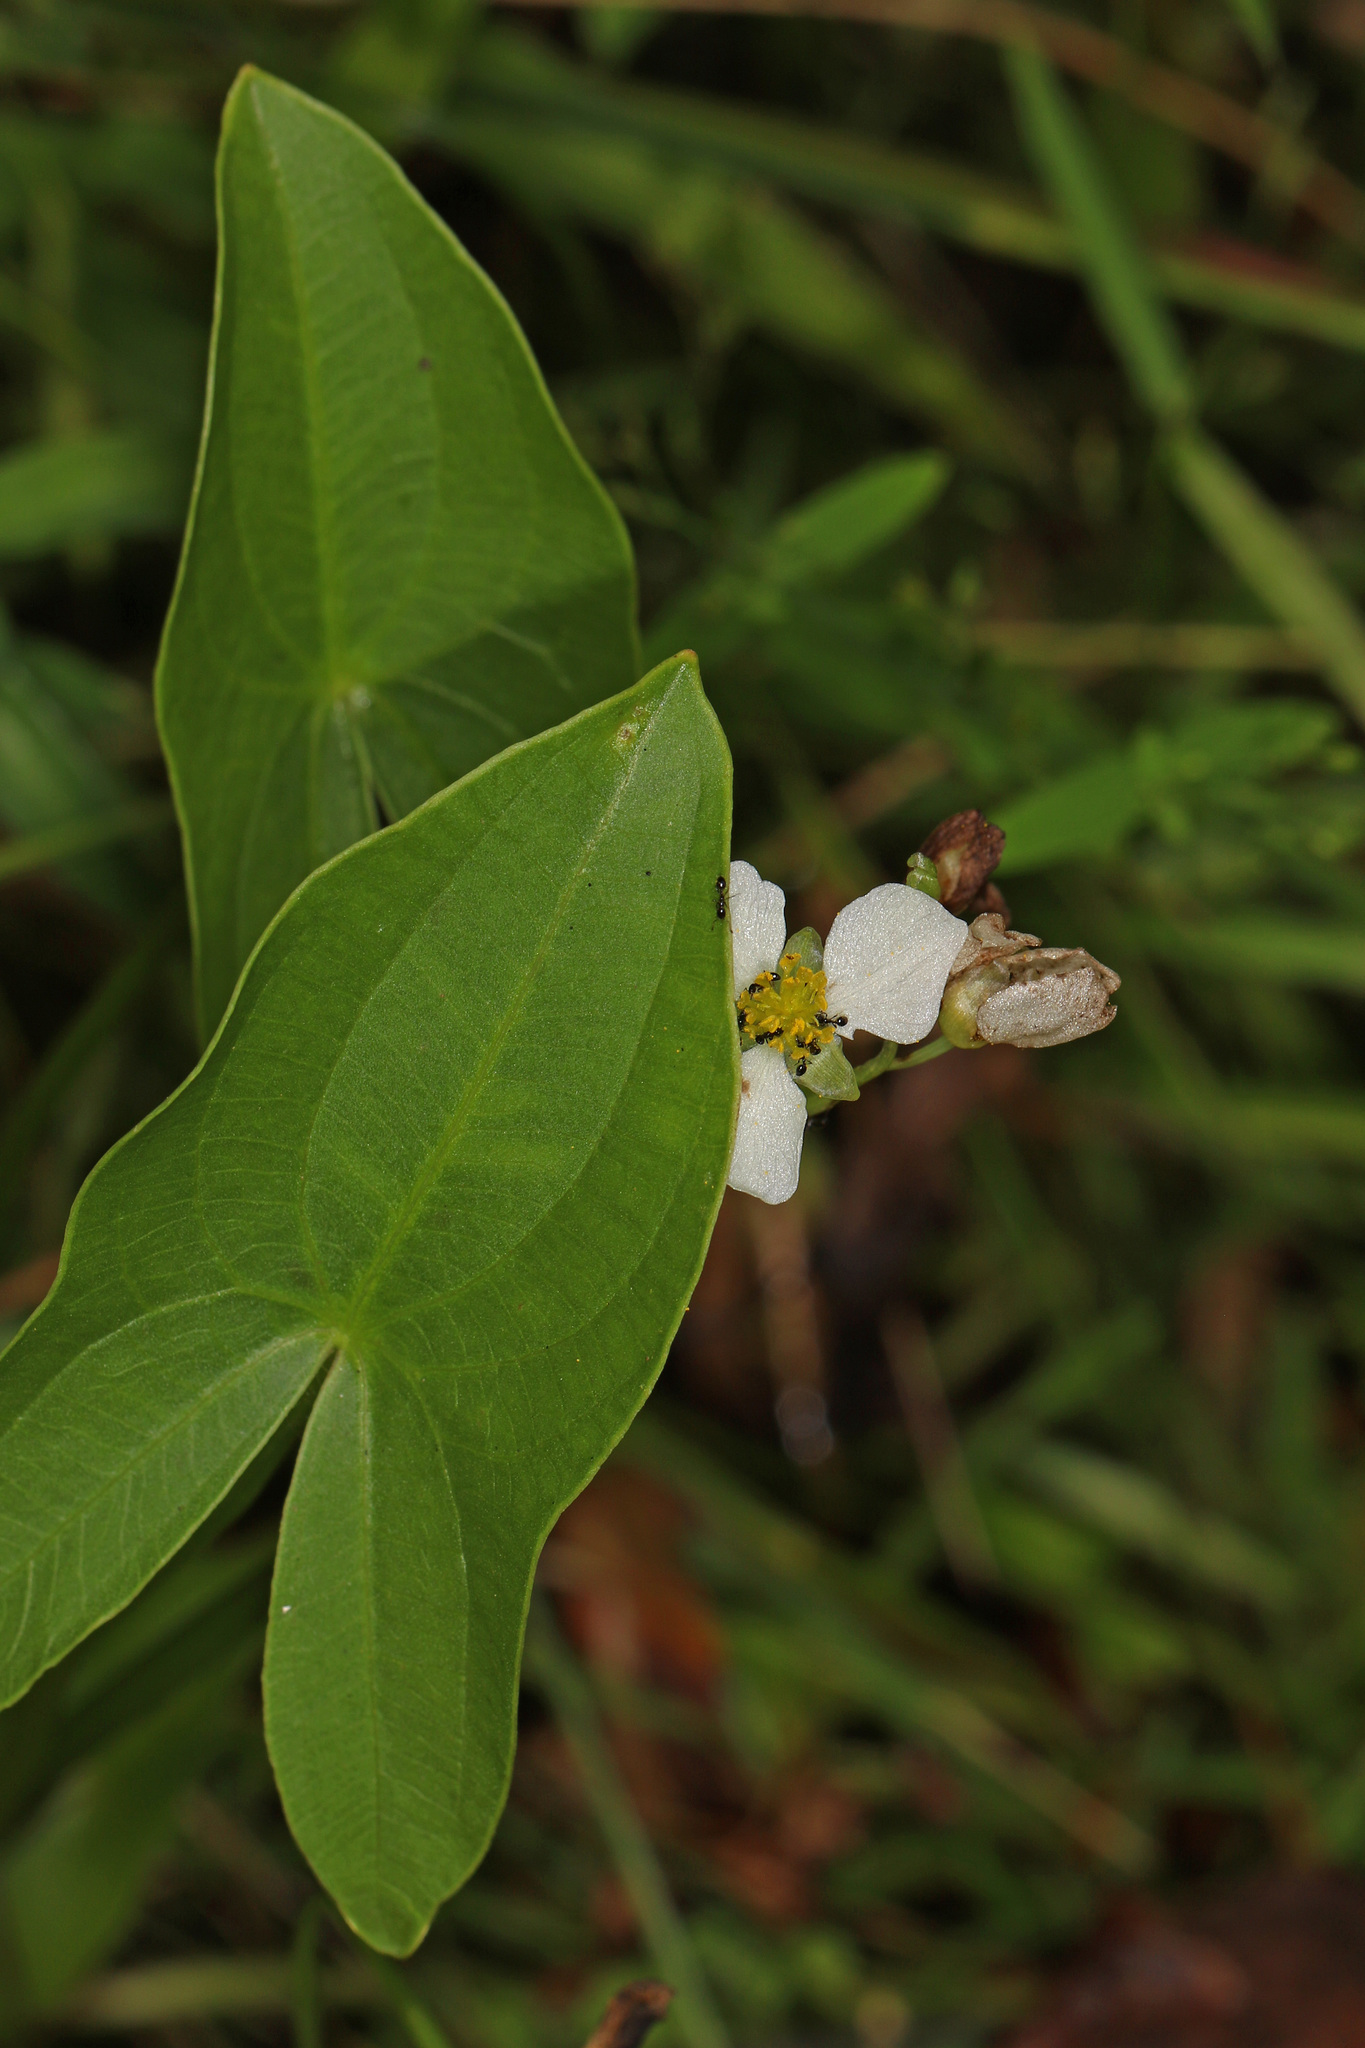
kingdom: Plantae
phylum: Tracheophyta
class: Liliopsida
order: Alismatales
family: Alismataceae
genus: Sagittaria
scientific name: Sagittaria latifolia
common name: Duck-potato
